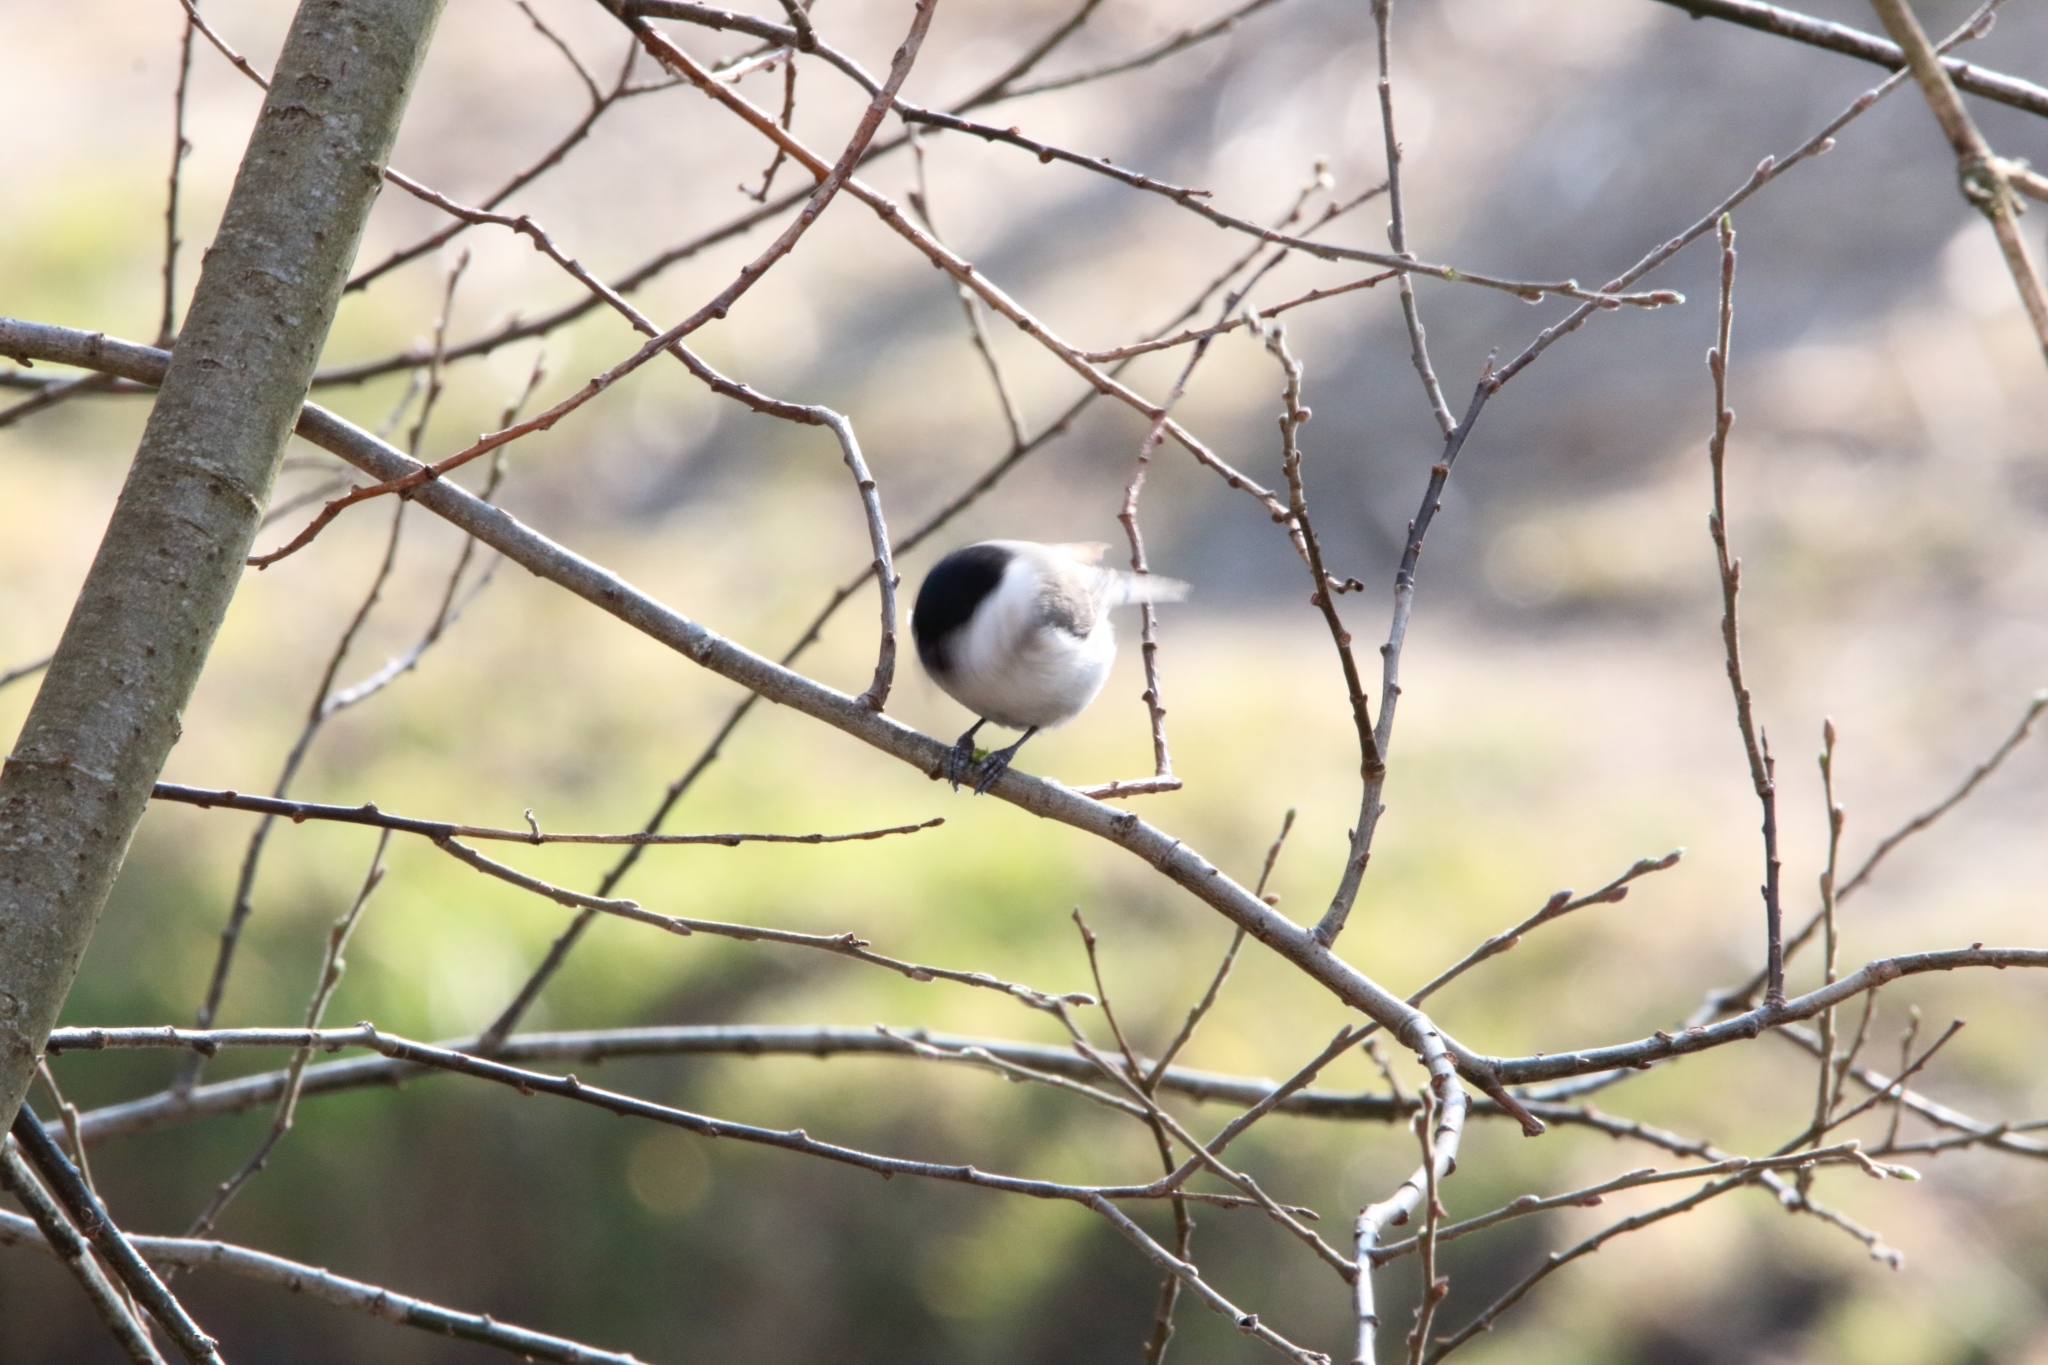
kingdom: Animalia
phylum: Chordata
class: Aves
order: Passeriformes
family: Paridae
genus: Poecile
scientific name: Poecile palustris
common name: Marsh tit
